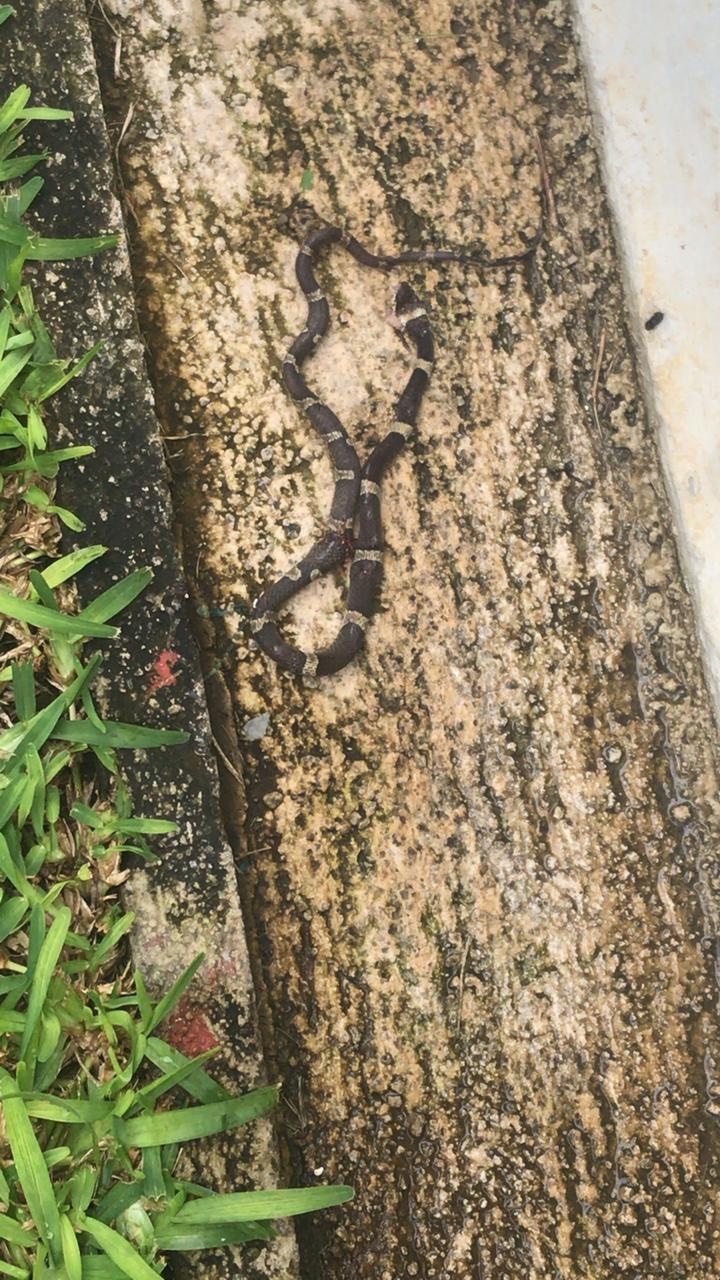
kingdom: Animalia
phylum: Chordata
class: Squamata
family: Colubridae
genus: Leptodeira
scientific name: Leptodeira nigrofasciata
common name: Black-banded cat-eyed snake
